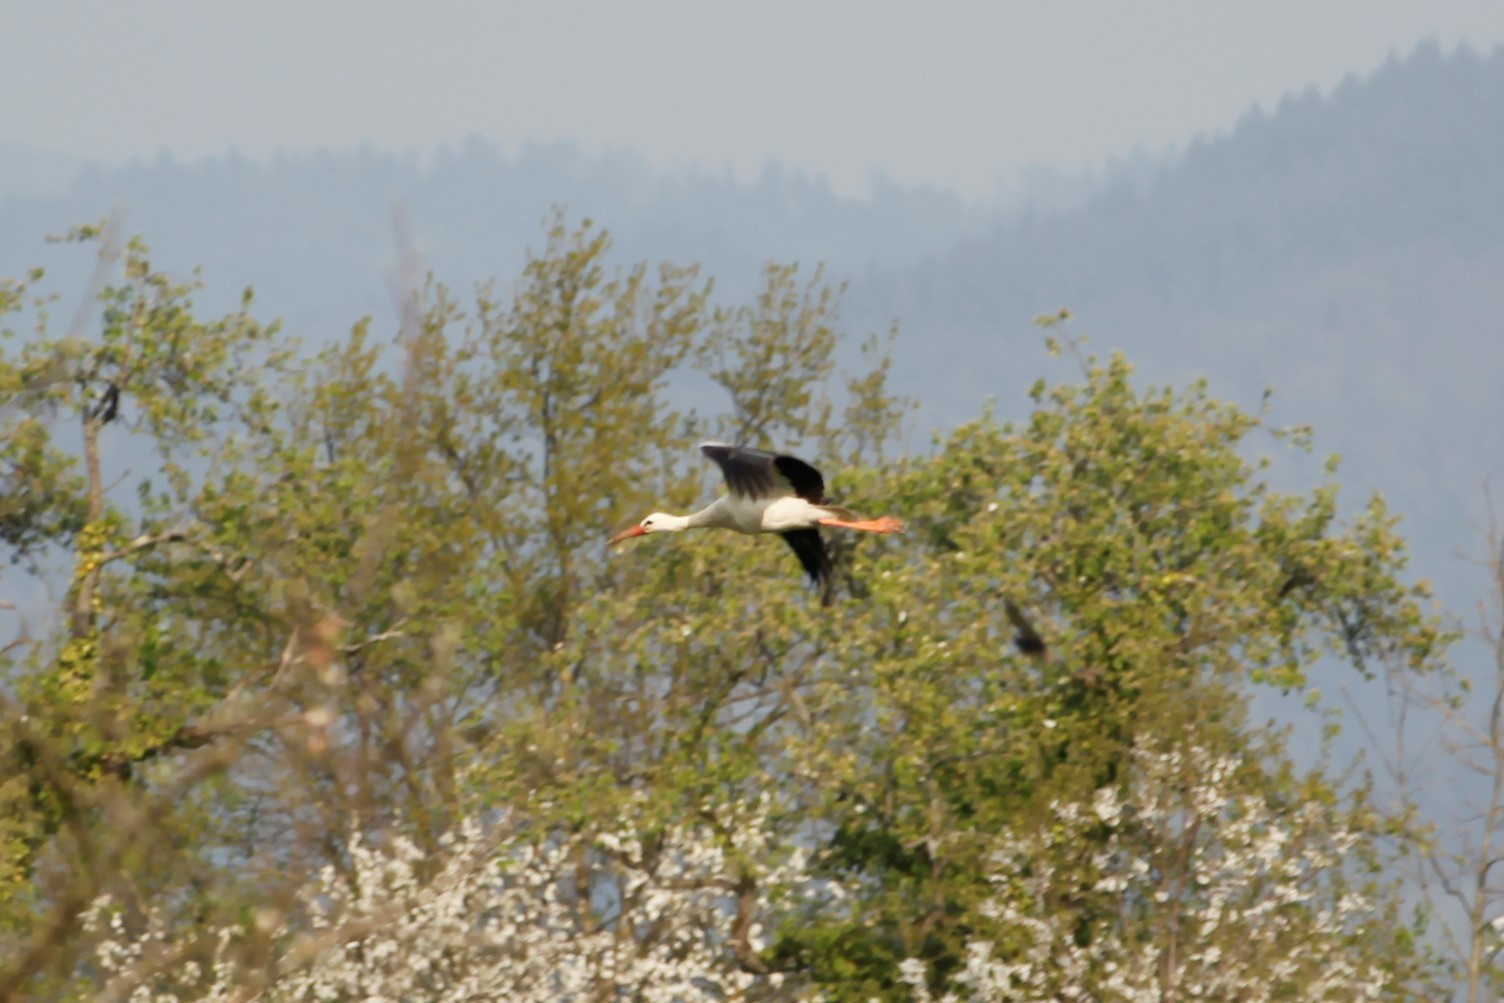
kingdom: Animalia
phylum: Chordata
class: Aves
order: Ciconiiformes
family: Ciconiidae
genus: Ciconia
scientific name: Ciconia ciconia
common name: White stork
